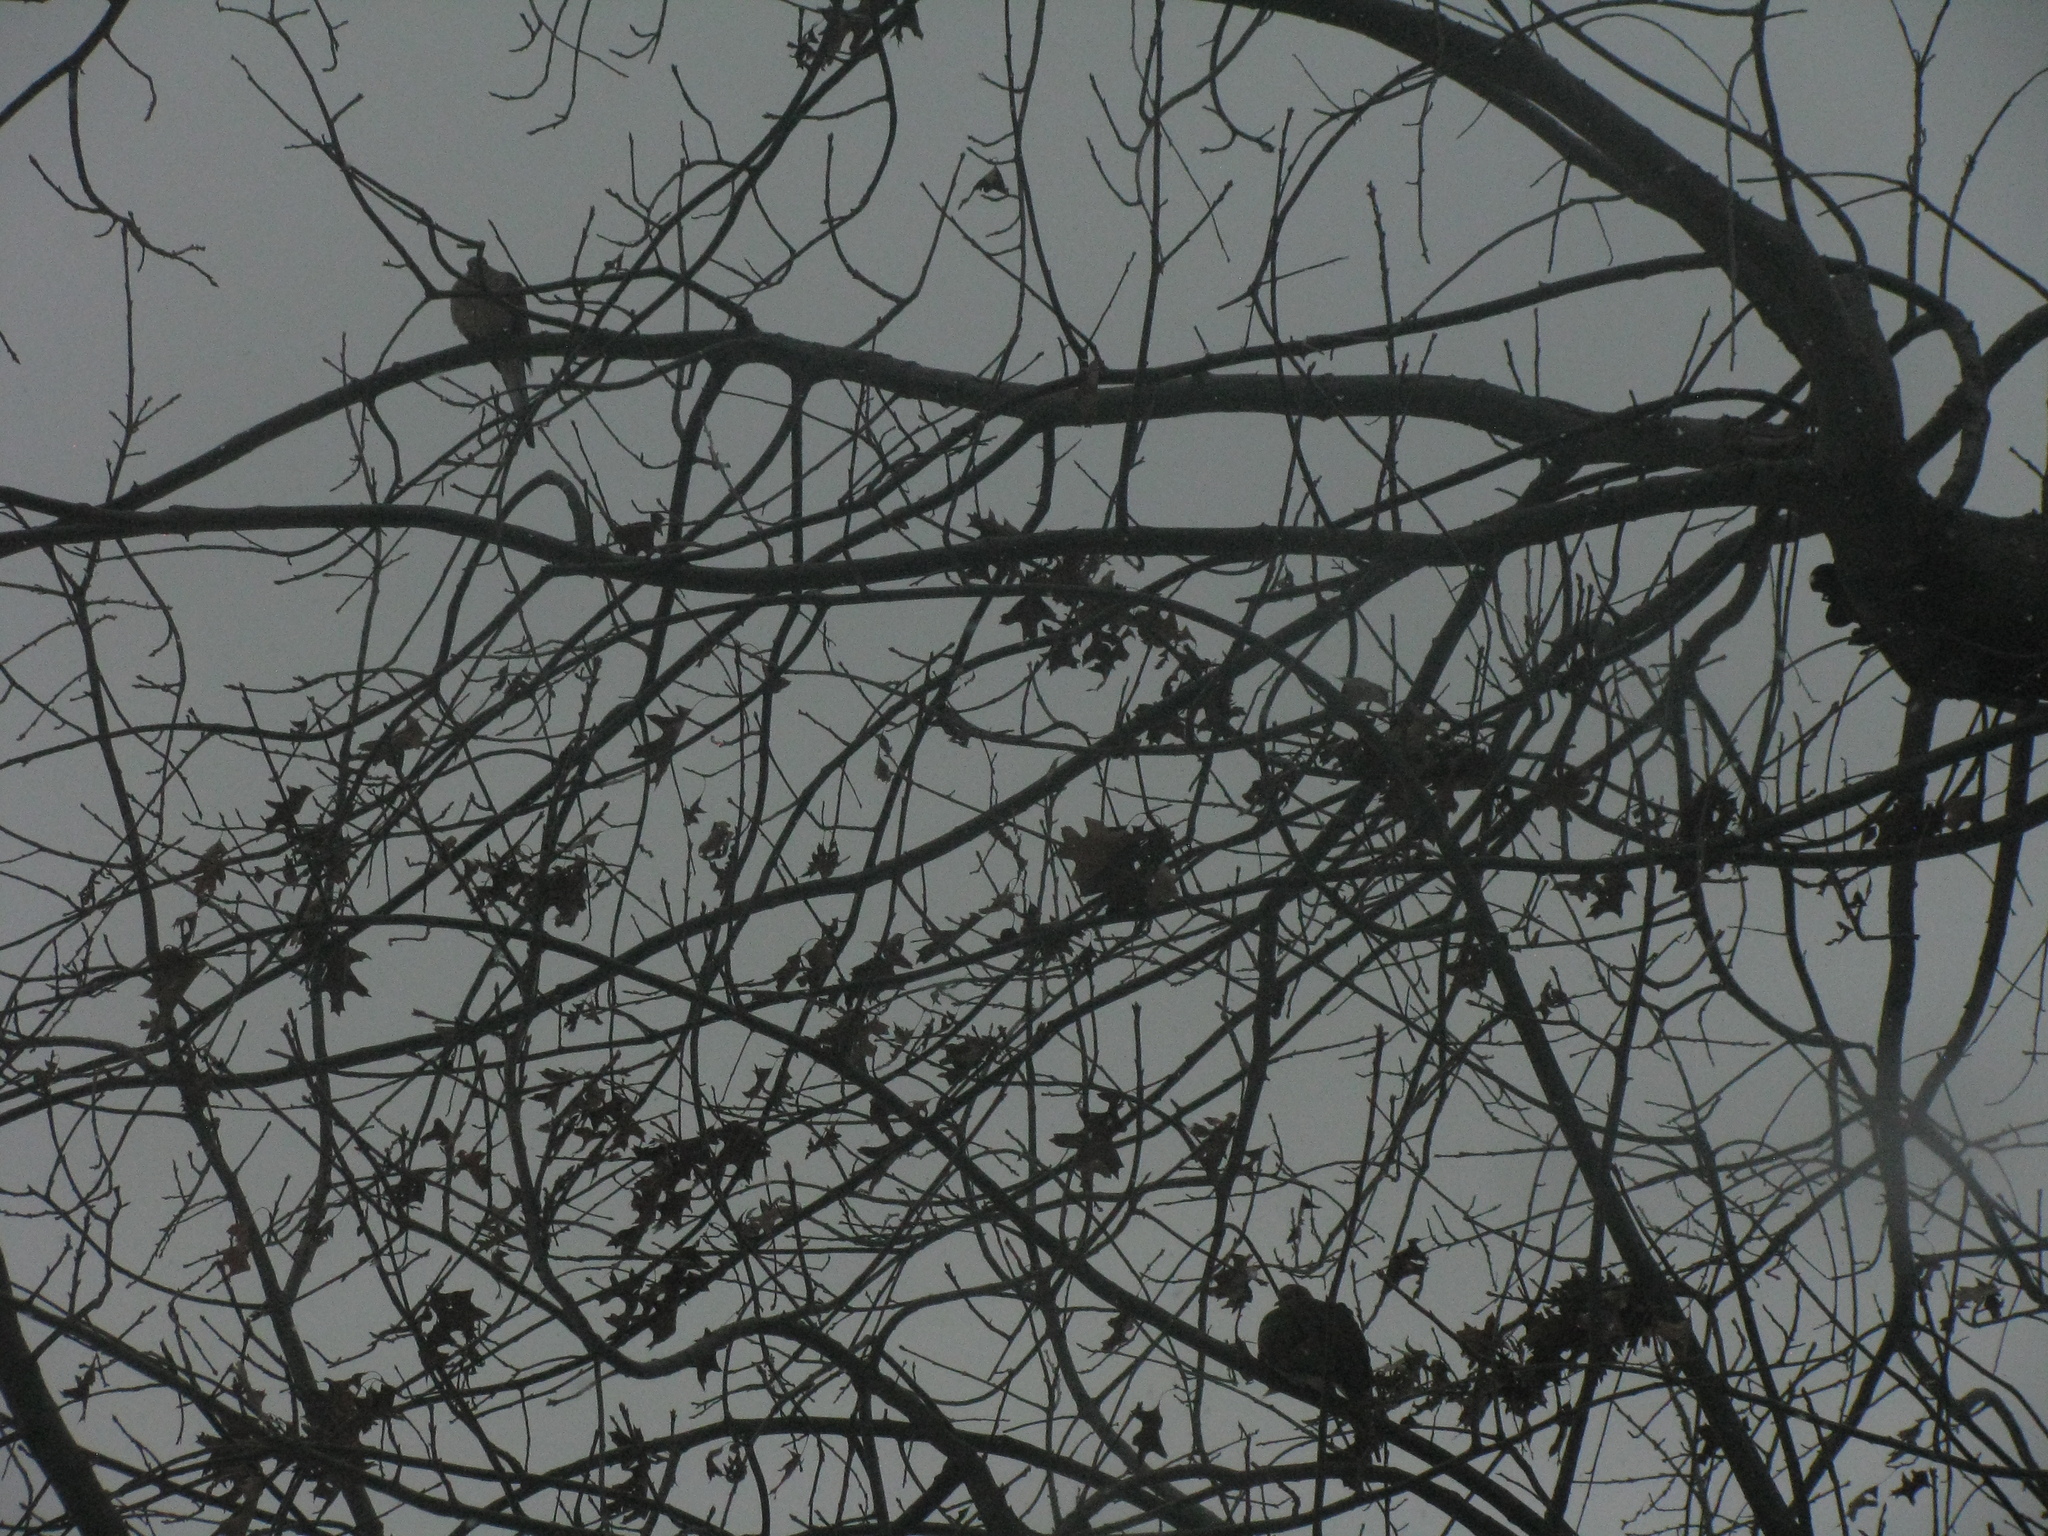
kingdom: Animalia
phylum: Chordata
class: Aves
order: Columbiformes
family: Columbidae
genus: Zenaida
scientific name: Zenaida macroura
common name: Mourning dove
